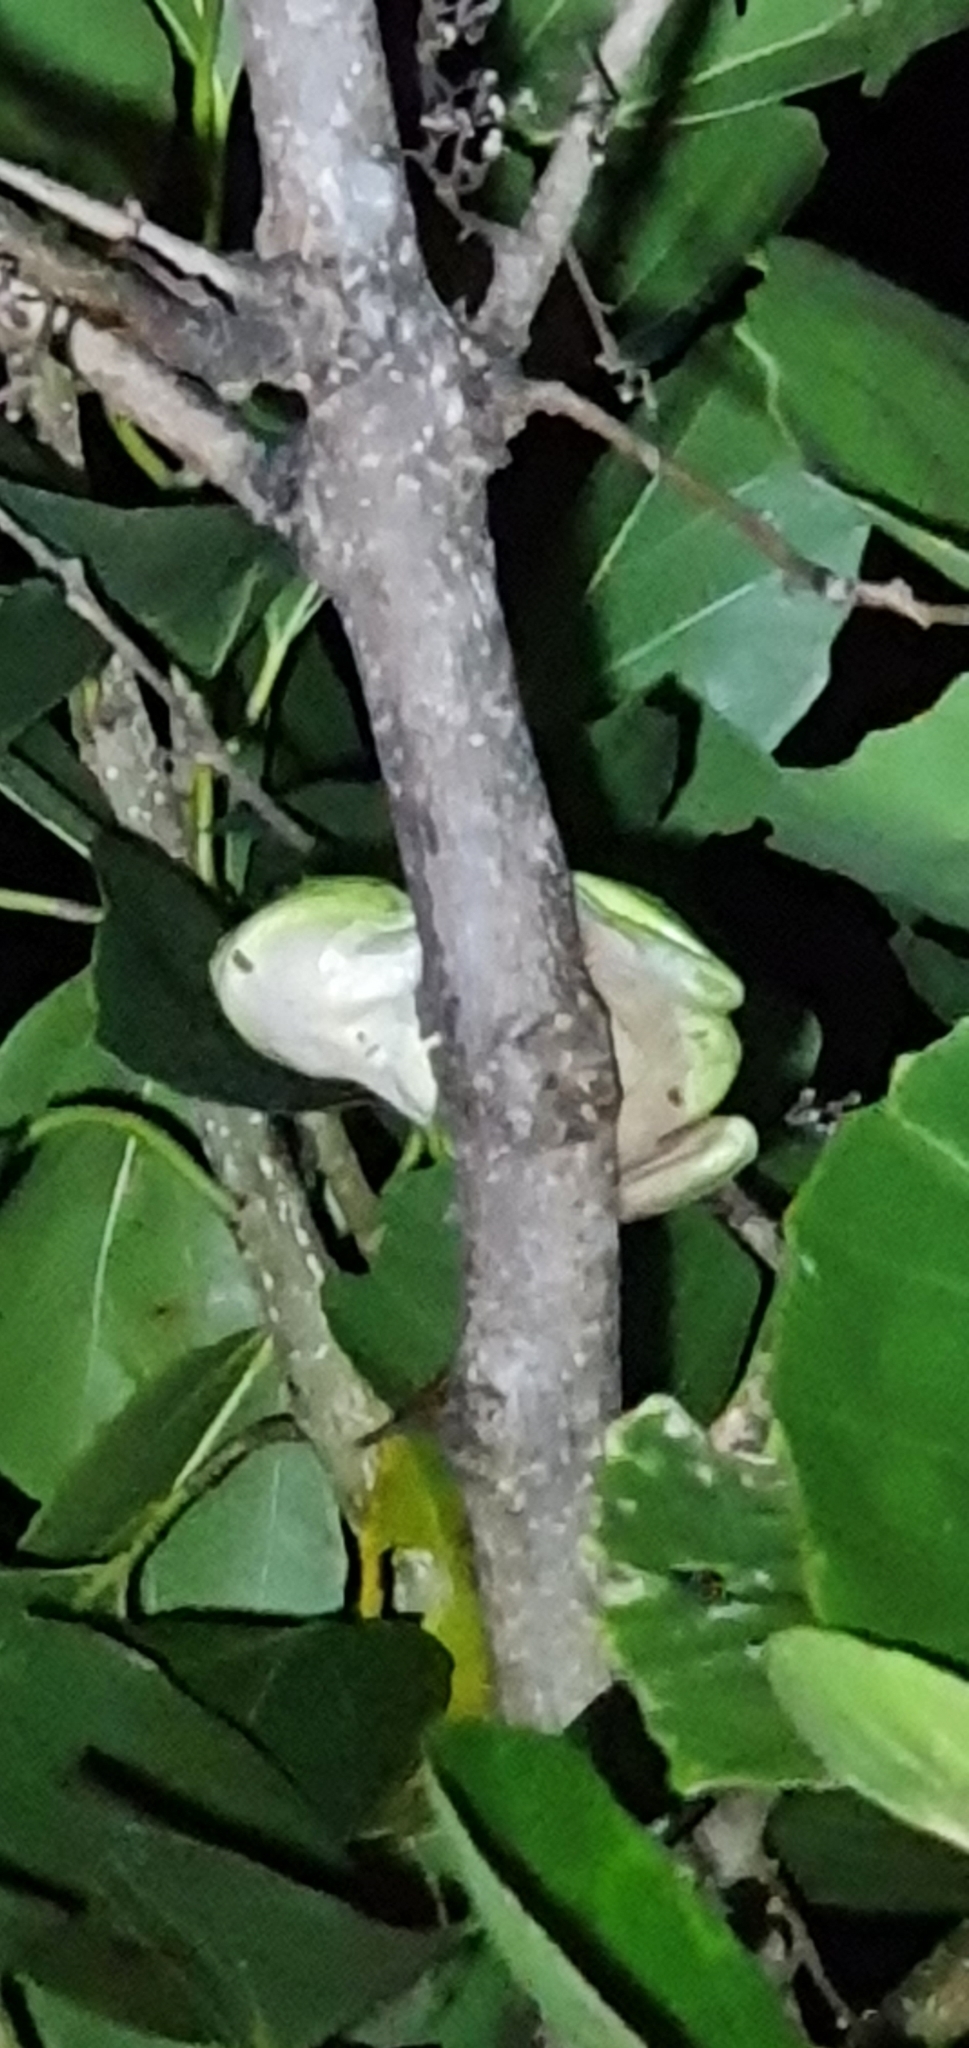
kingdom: Animalia
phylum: Chordata
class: Amphibia
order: Anura
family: Pelodryadidae
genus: Ranoidea
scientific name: Ranoidea caerulea
